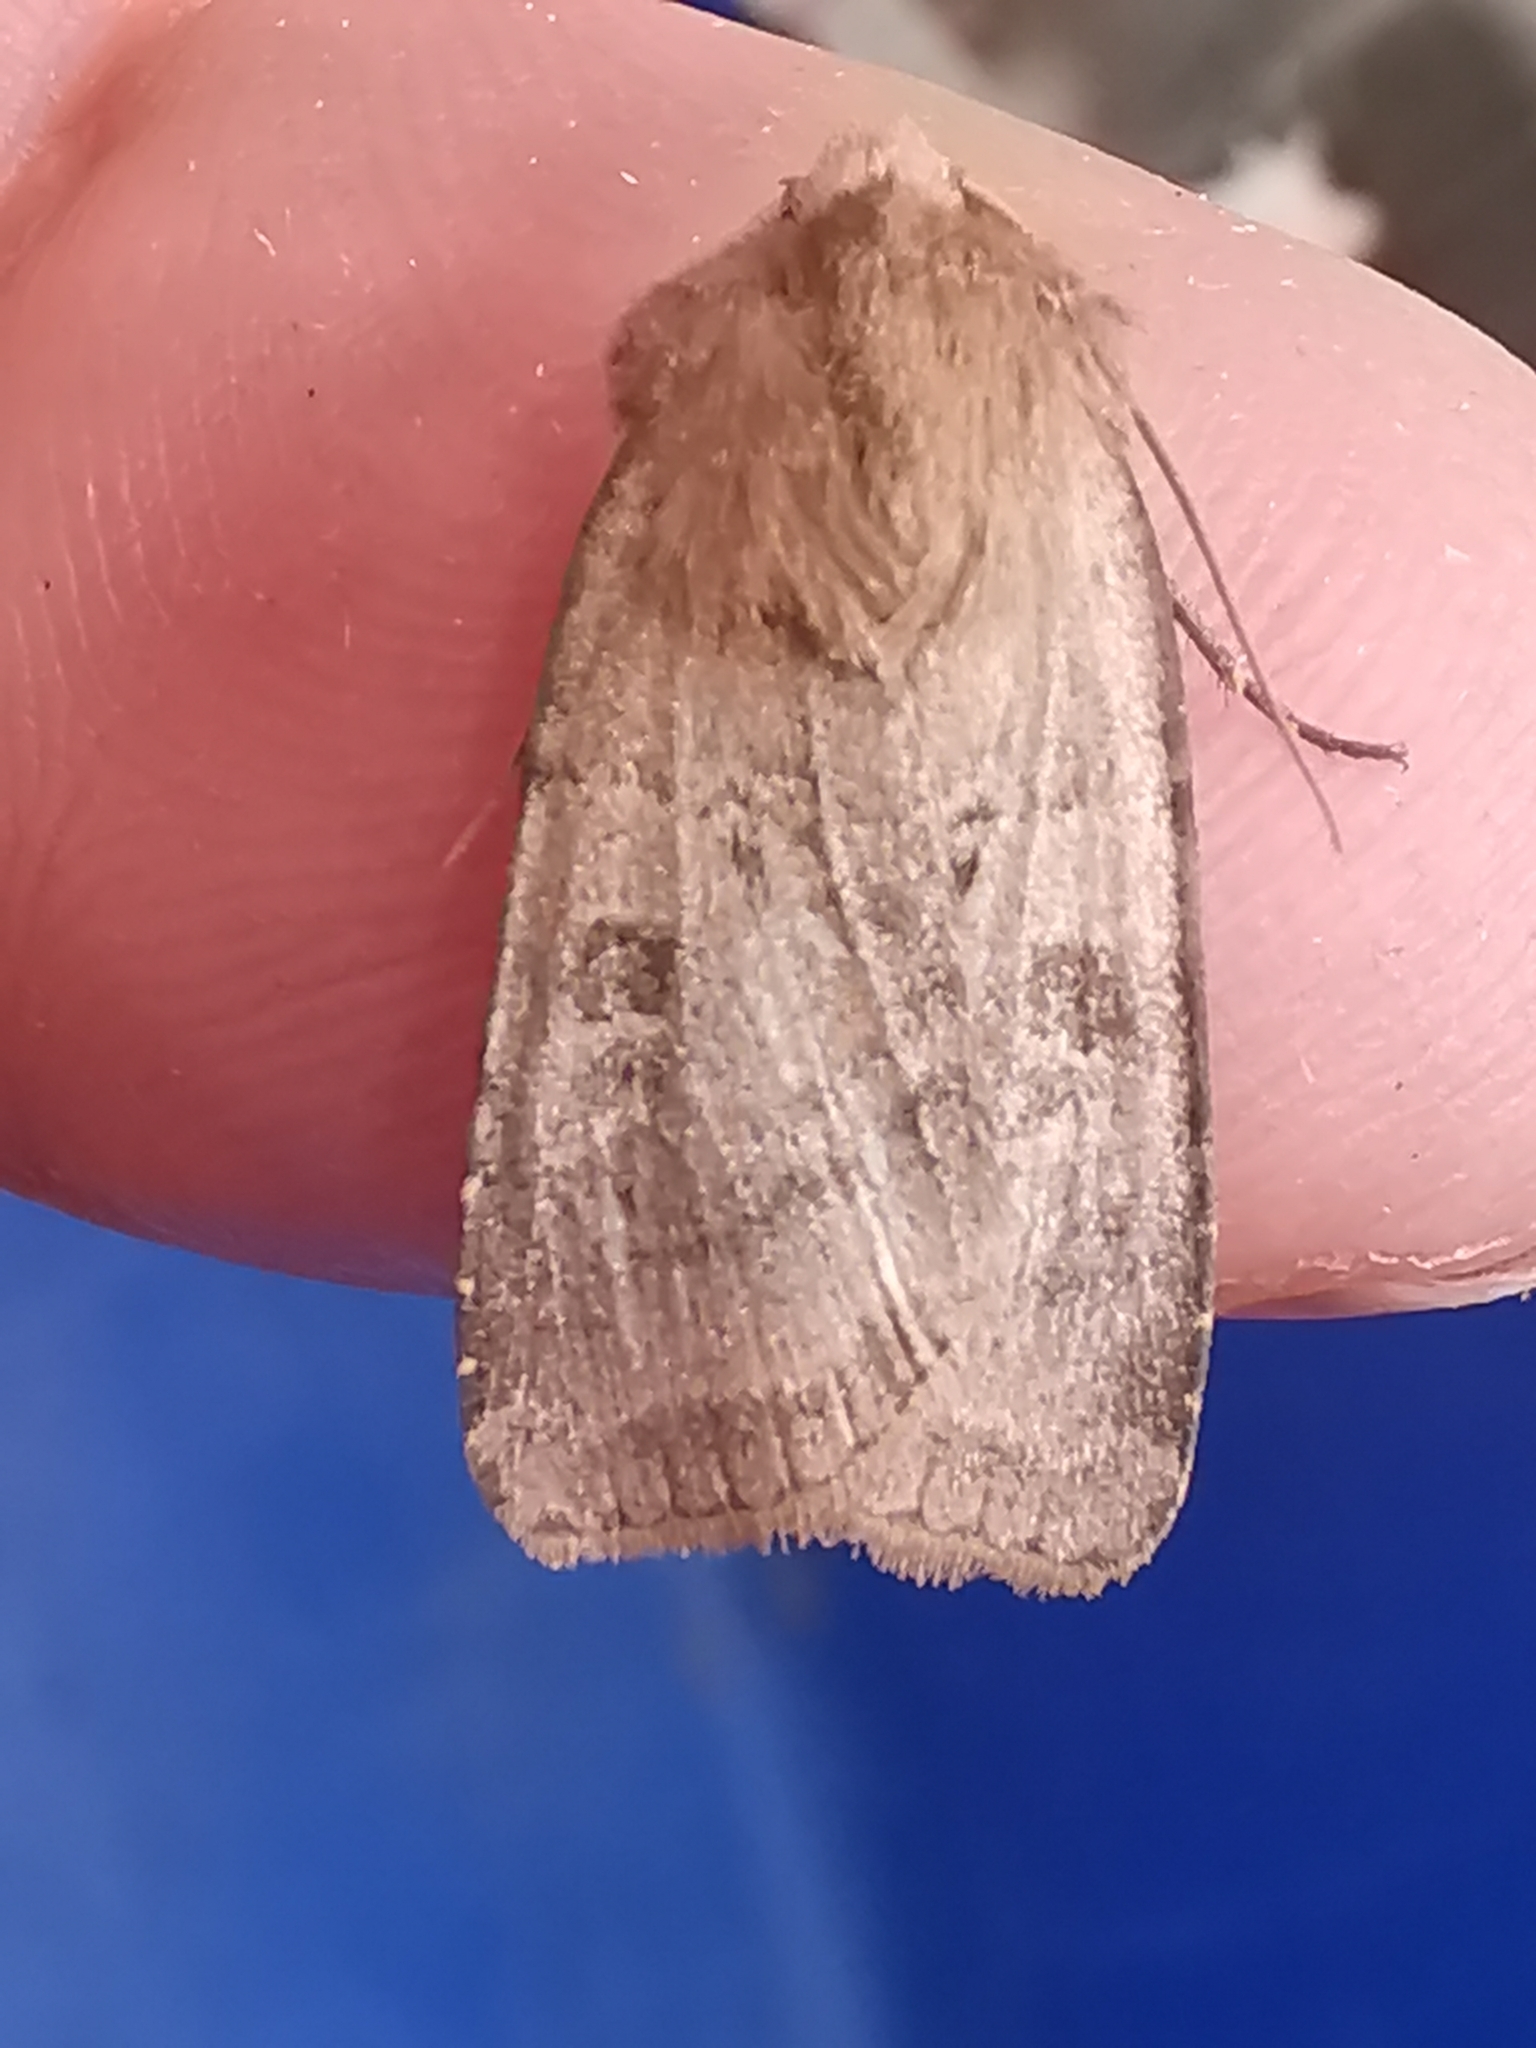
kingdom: Animalia
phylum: Arthropoda
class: Insecta
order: Lepidoptera
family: Noctuidae
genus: Diarsia
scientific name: Diarsia rubi
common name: Small square-spot
